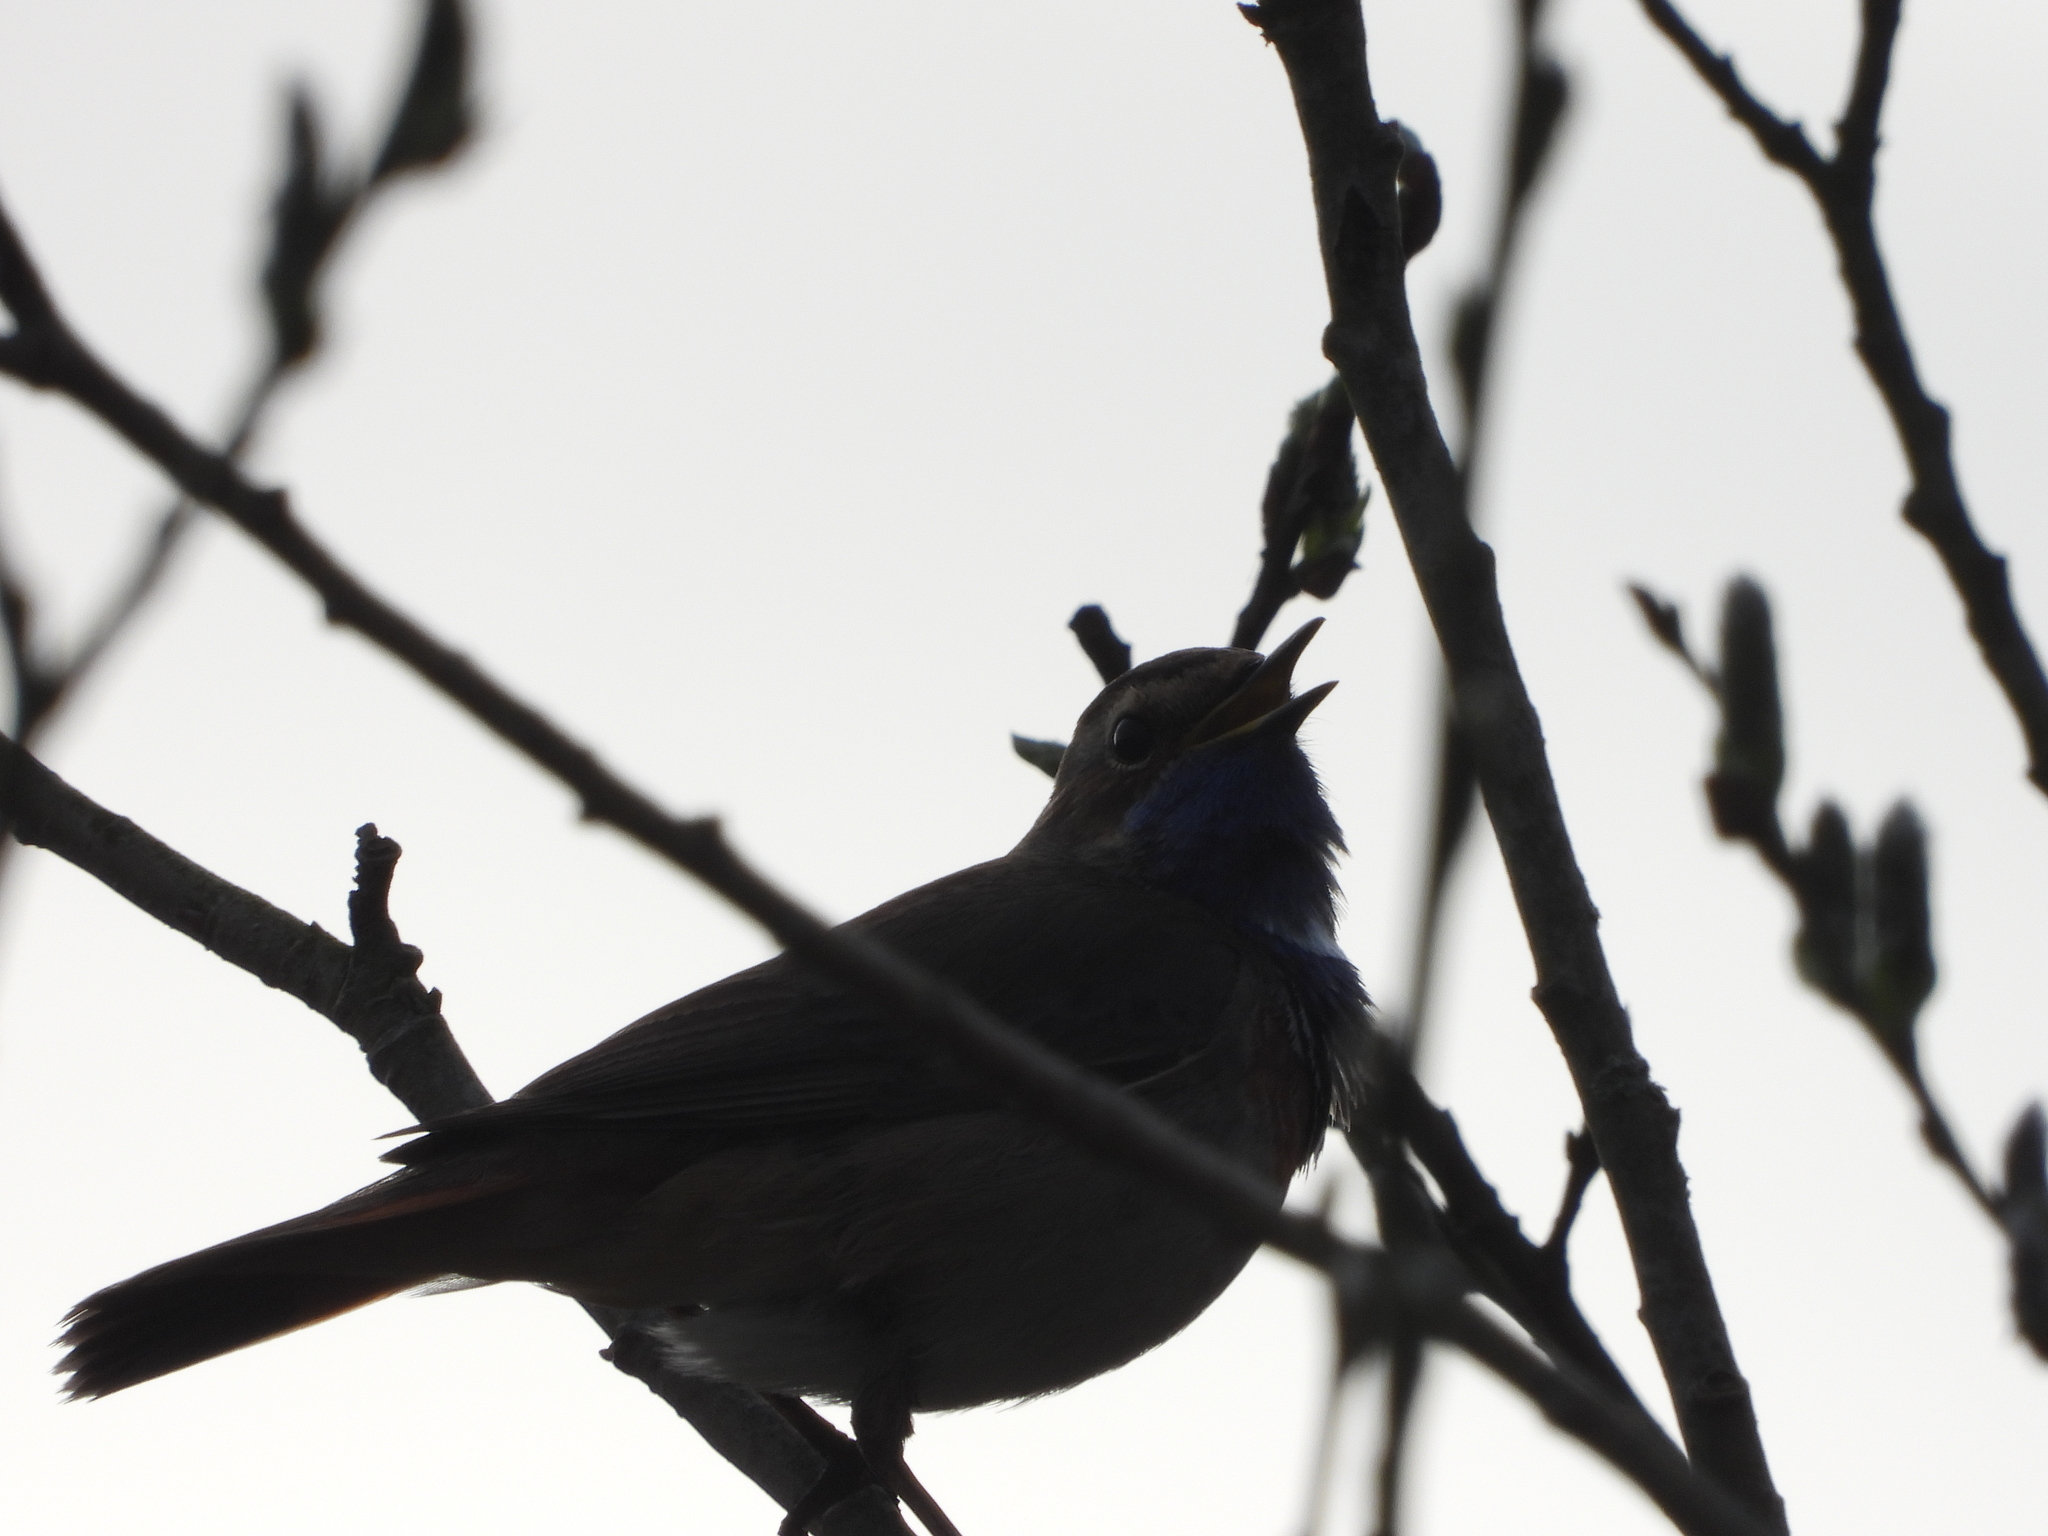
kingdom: Animalia
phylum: Chordata
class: Aves
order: Passeriformes
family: Muscicapidae
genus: Luscinia
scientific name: Luscinia svecica
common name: Bluethroat
